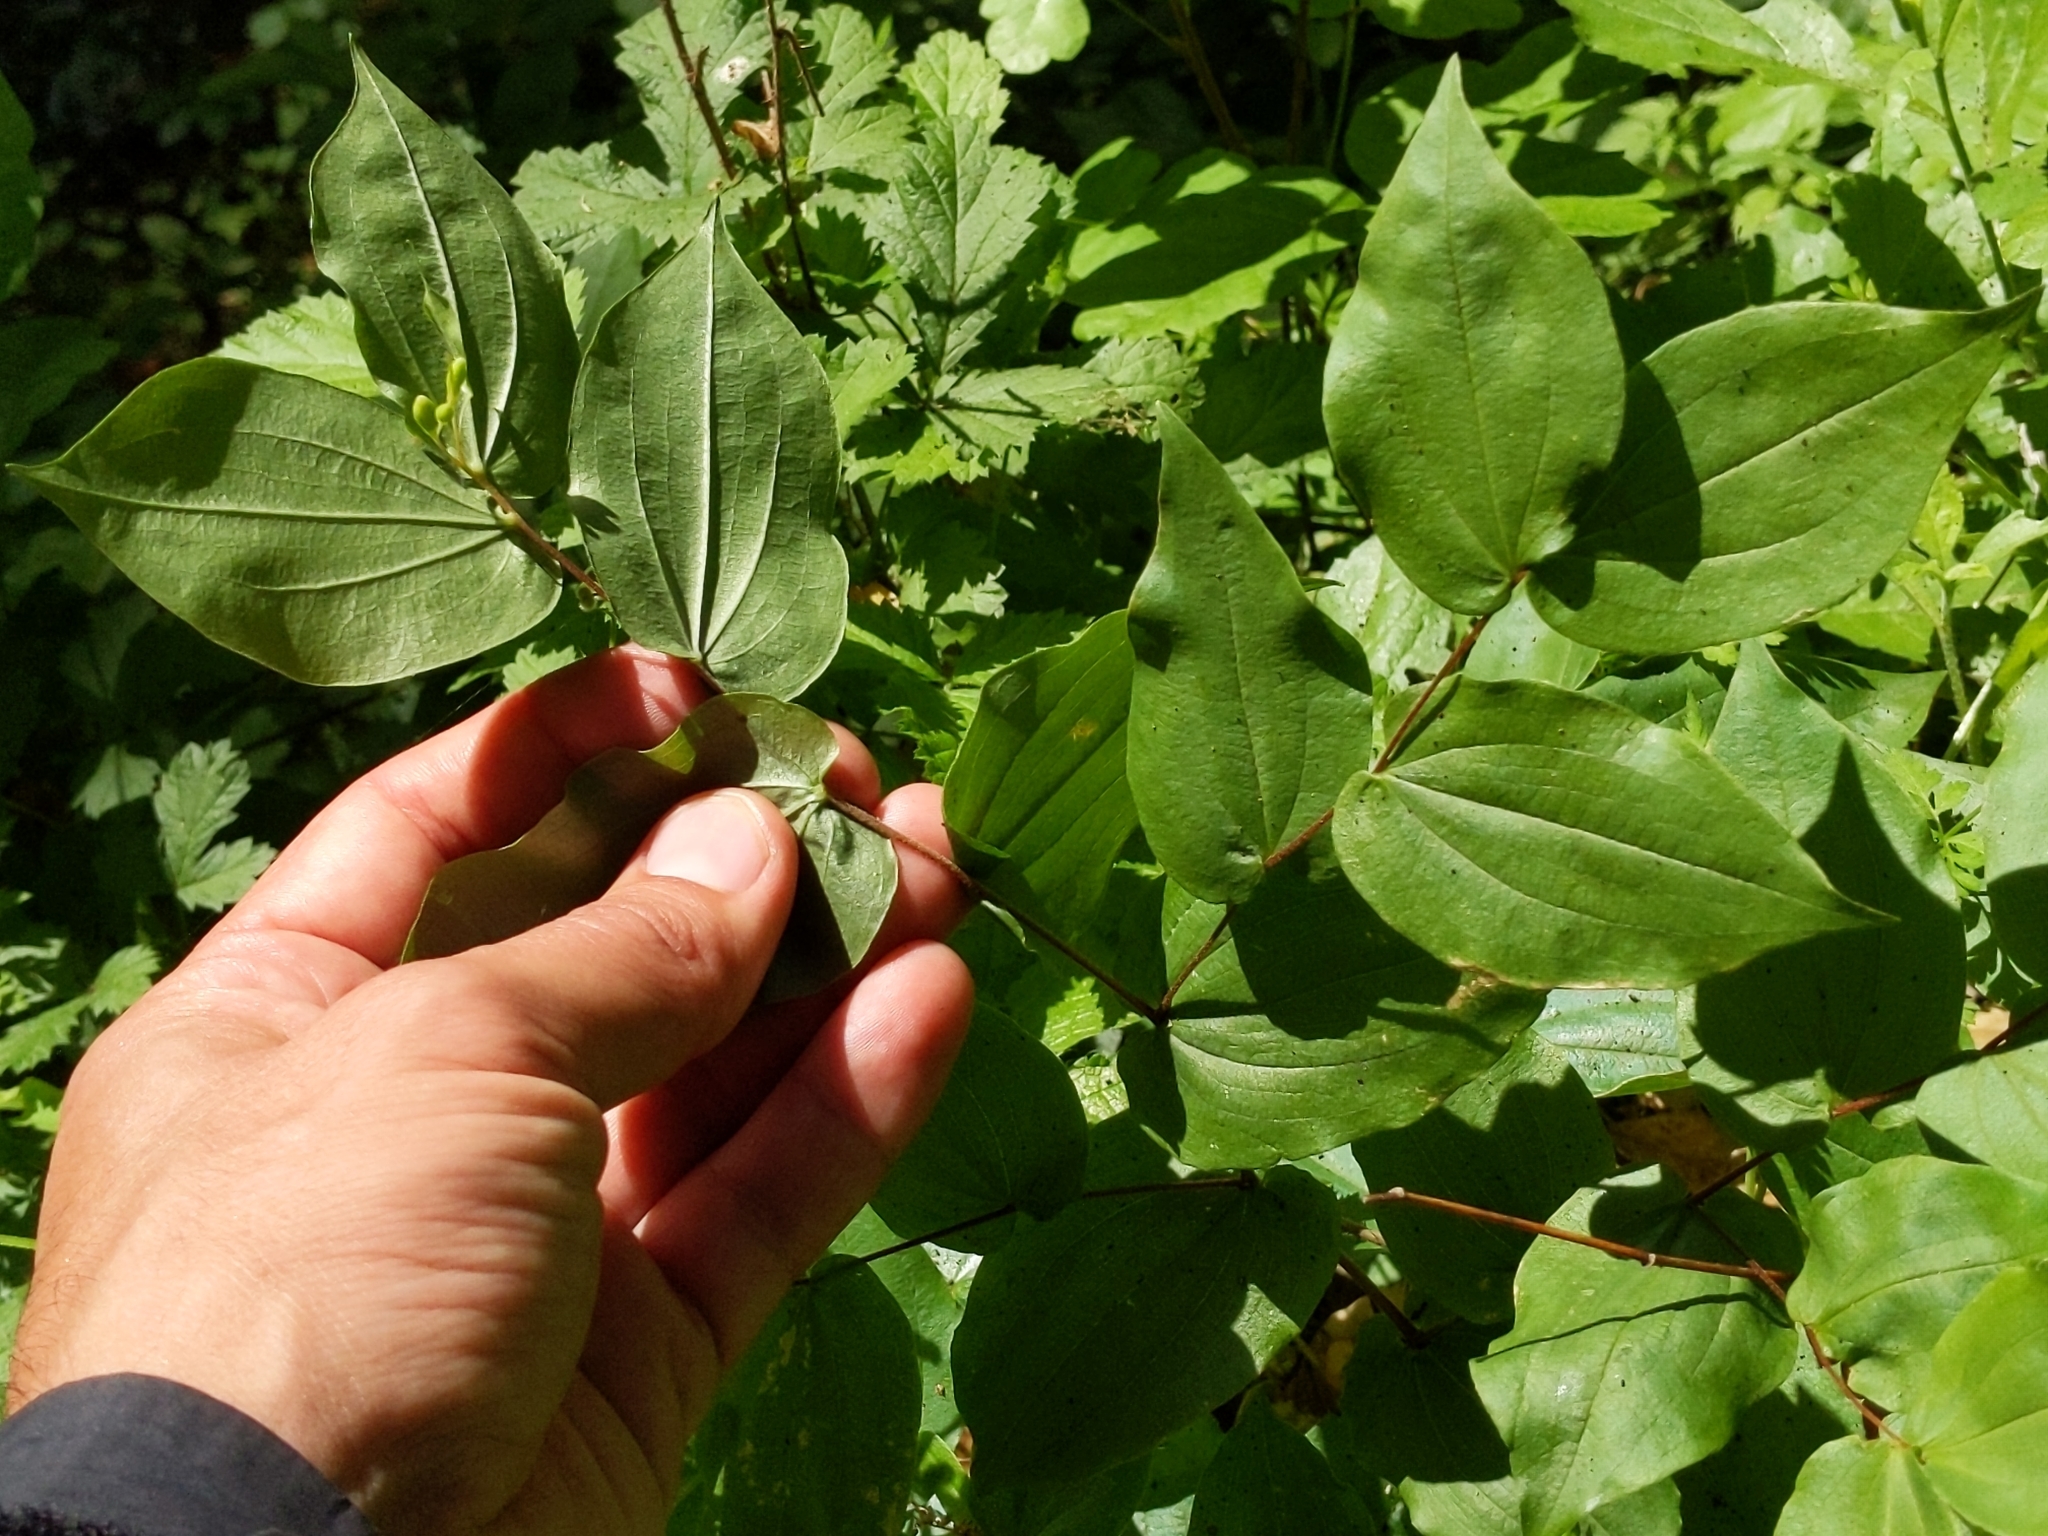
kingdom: Plantae
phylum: Tracheophyta
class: Liliopsida
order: Liliales
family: Liliaceae
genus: Prosartes
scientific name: Prosartes hookeri
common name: Fairy-bells
